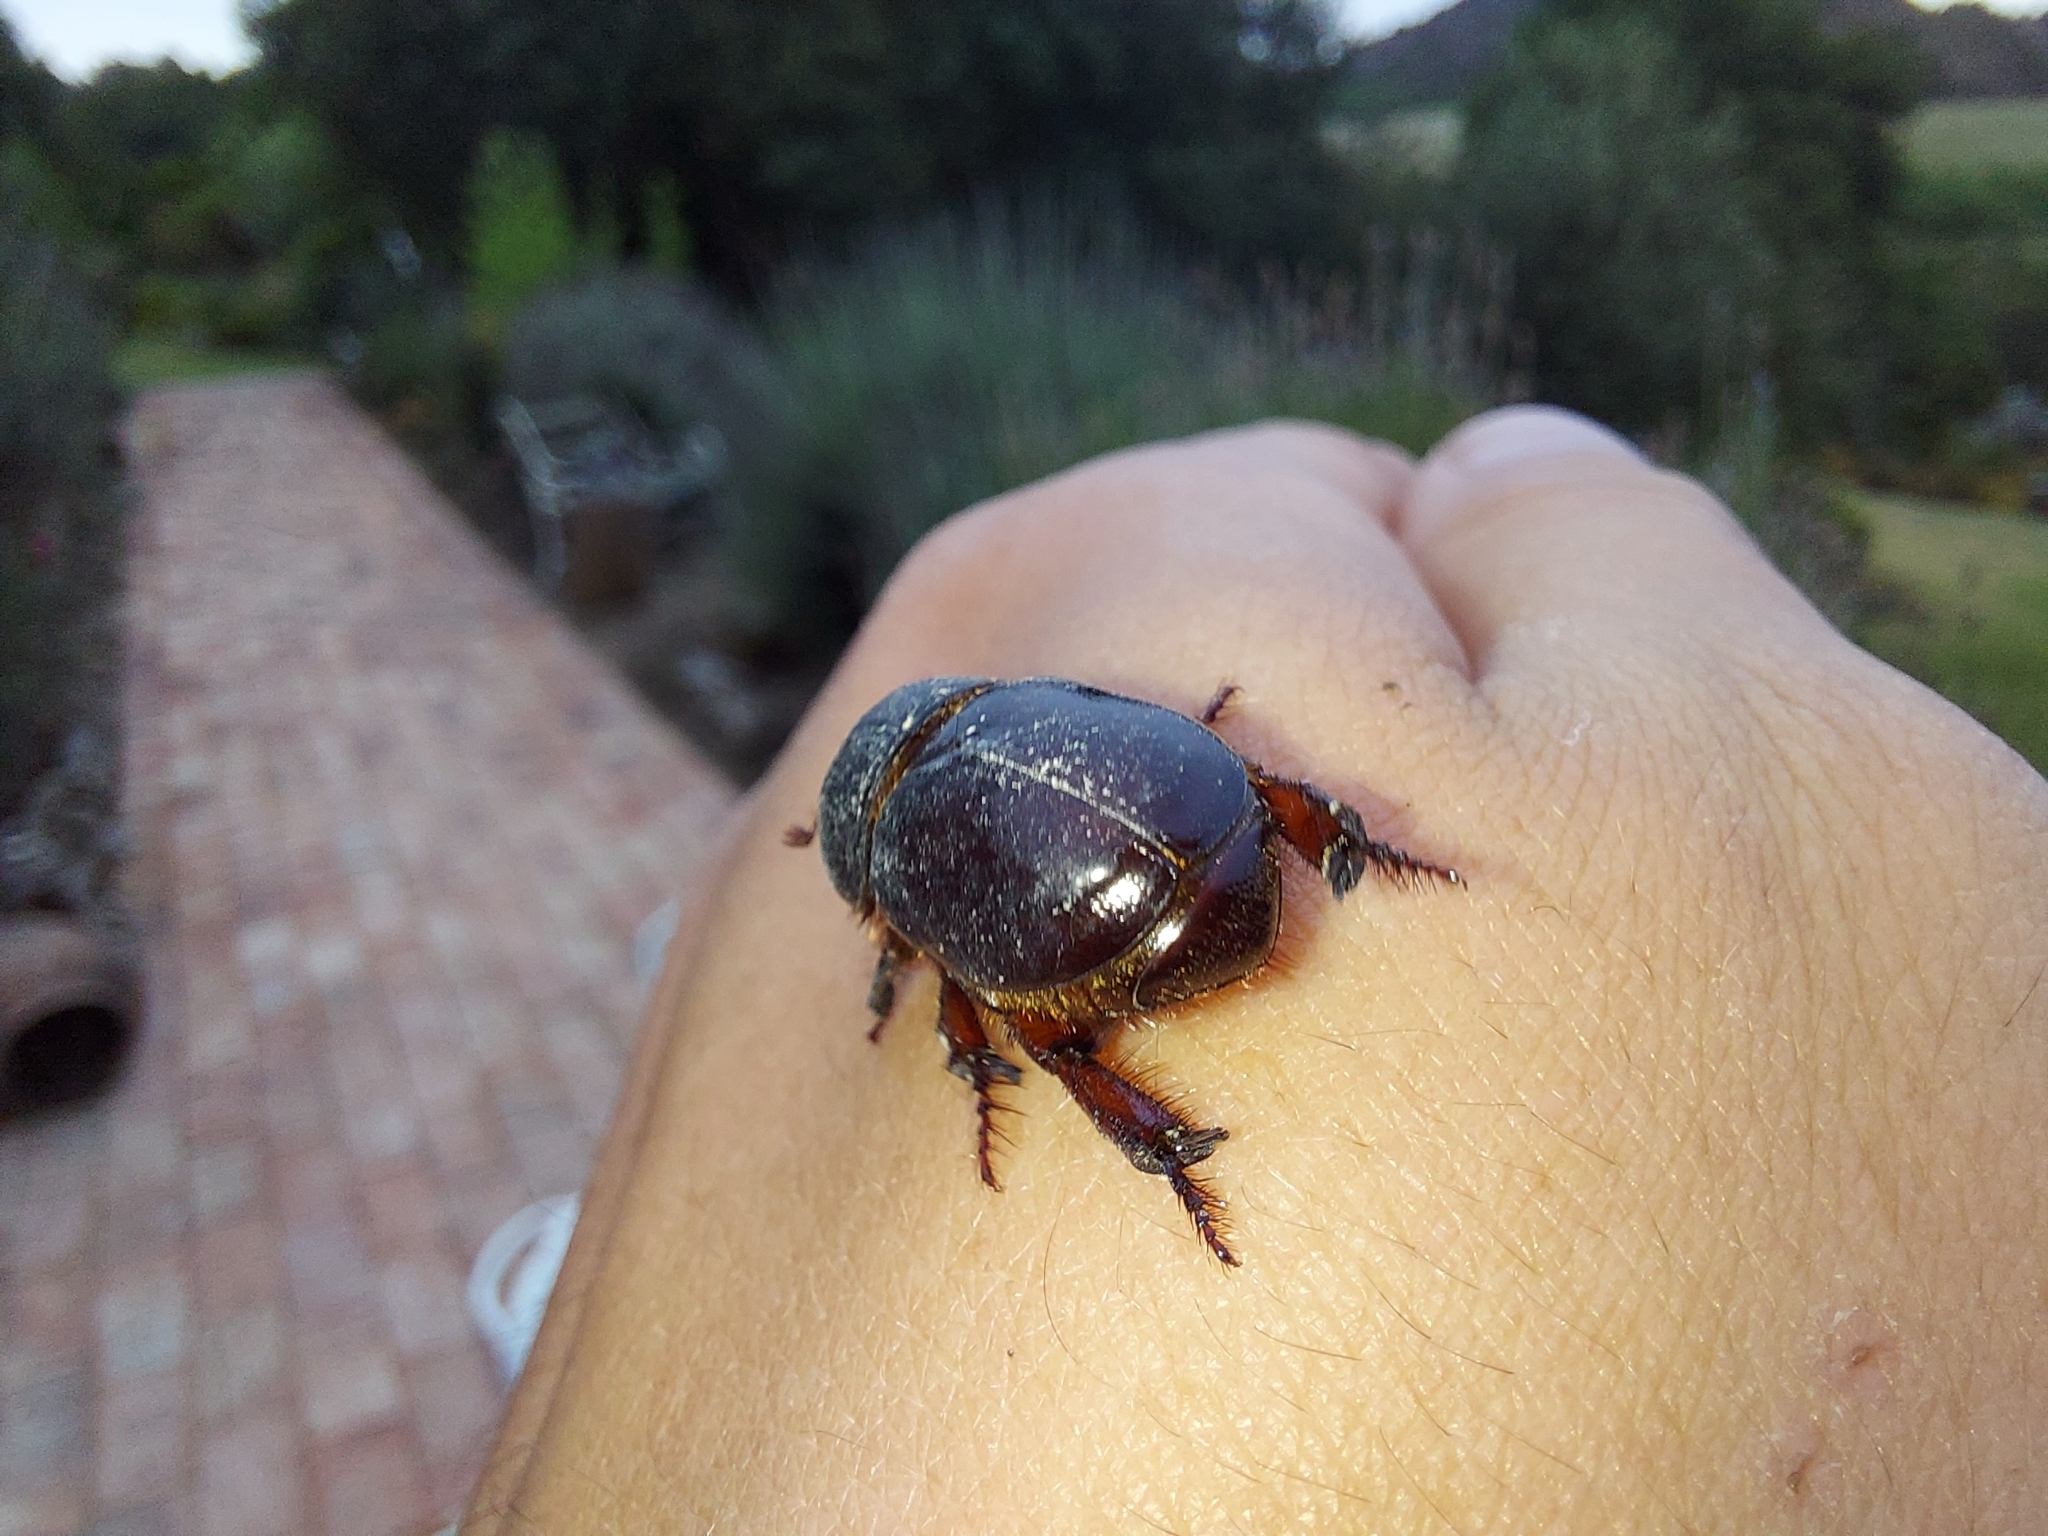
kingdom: Animalia
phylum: Arthropoda
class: Insecta
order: Coleoptera
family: Scarabaeidae
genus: Temnorhynchus
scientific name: Temnorhynchus retusus
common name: Plate-faced beetle
